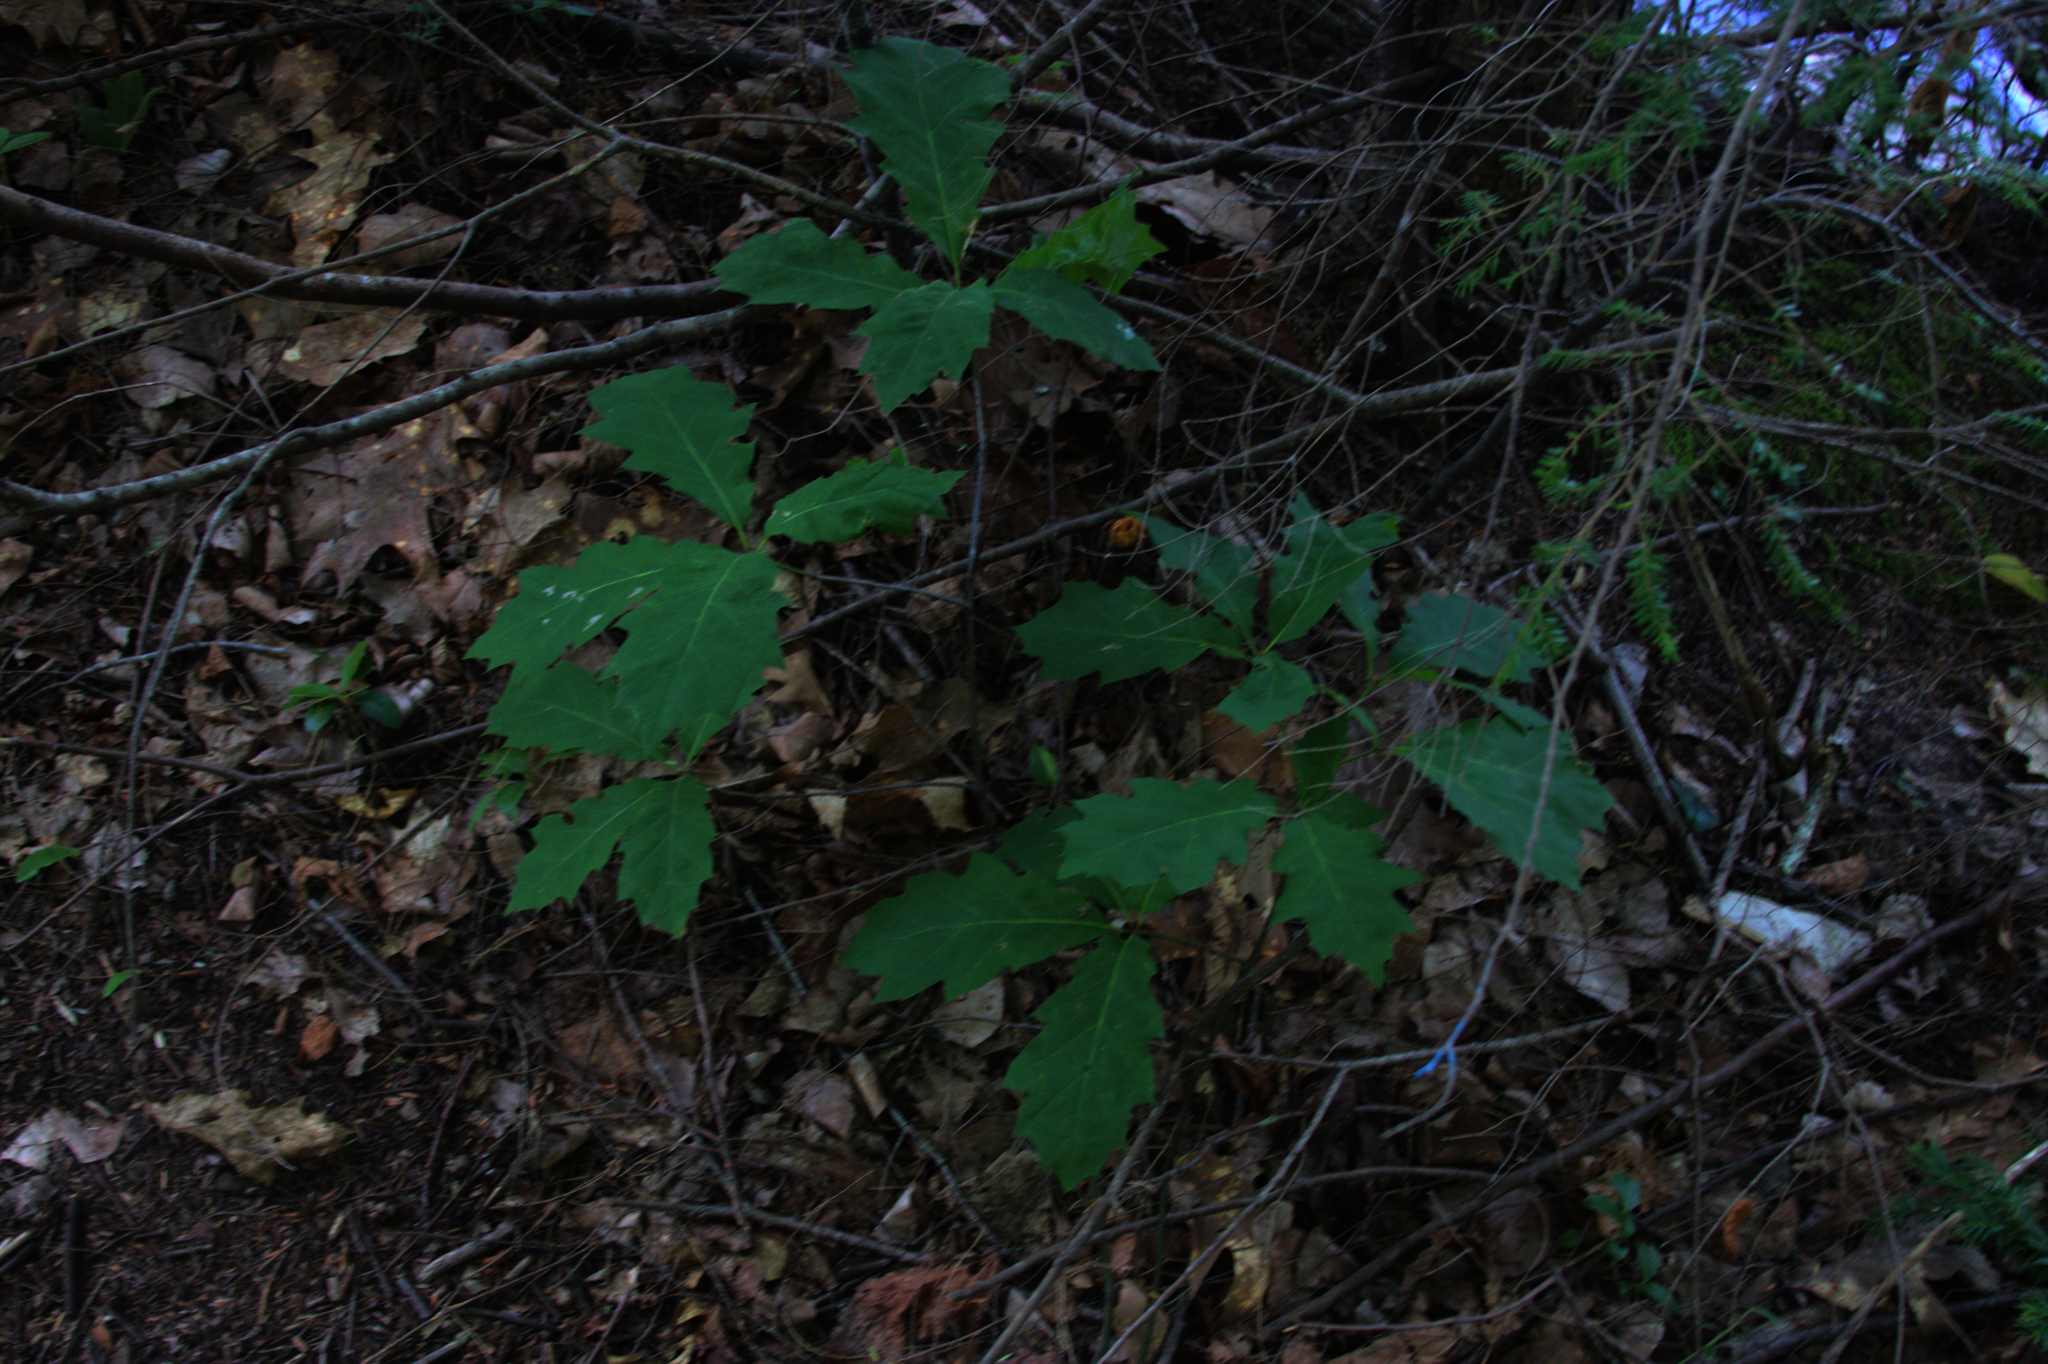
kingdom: Plantae
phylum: Tracheophyta
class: Magnoliopsida
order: Fagales
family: Fagaceae
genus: Quercus
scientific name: Quercus rubra
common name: Red oak
